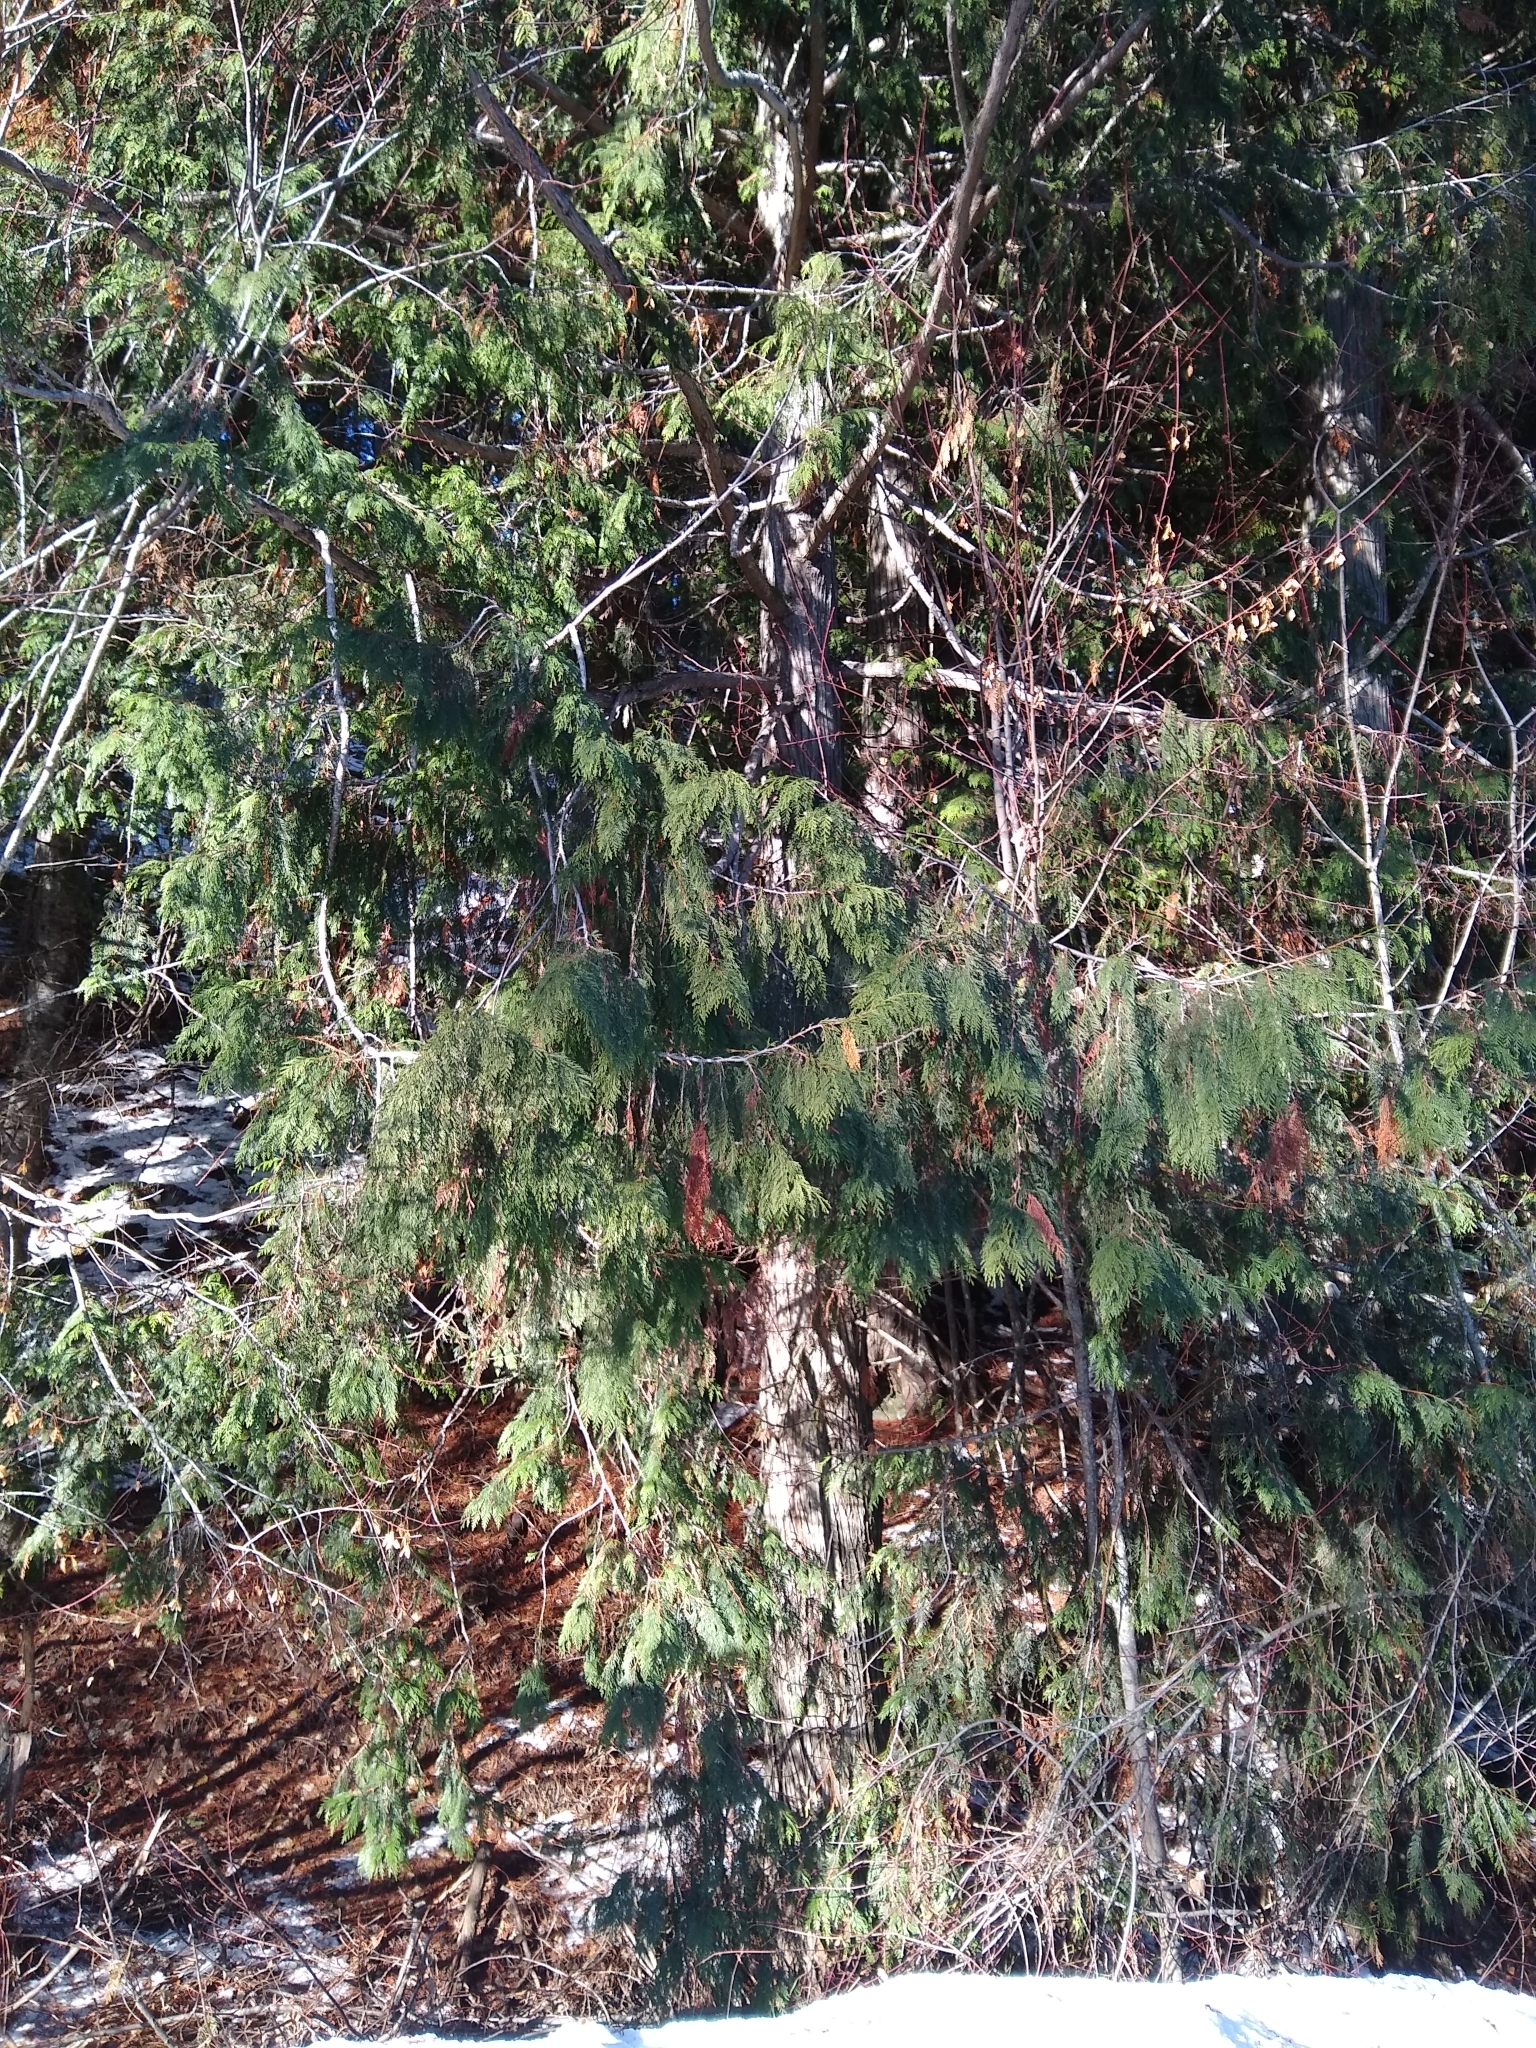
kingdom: Plantae
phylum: Tracheophyta
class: Pinopsida
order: Pinales
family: Cupressaceae
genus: Thuja
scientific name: Thuja plicata
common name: Western red-cedar
